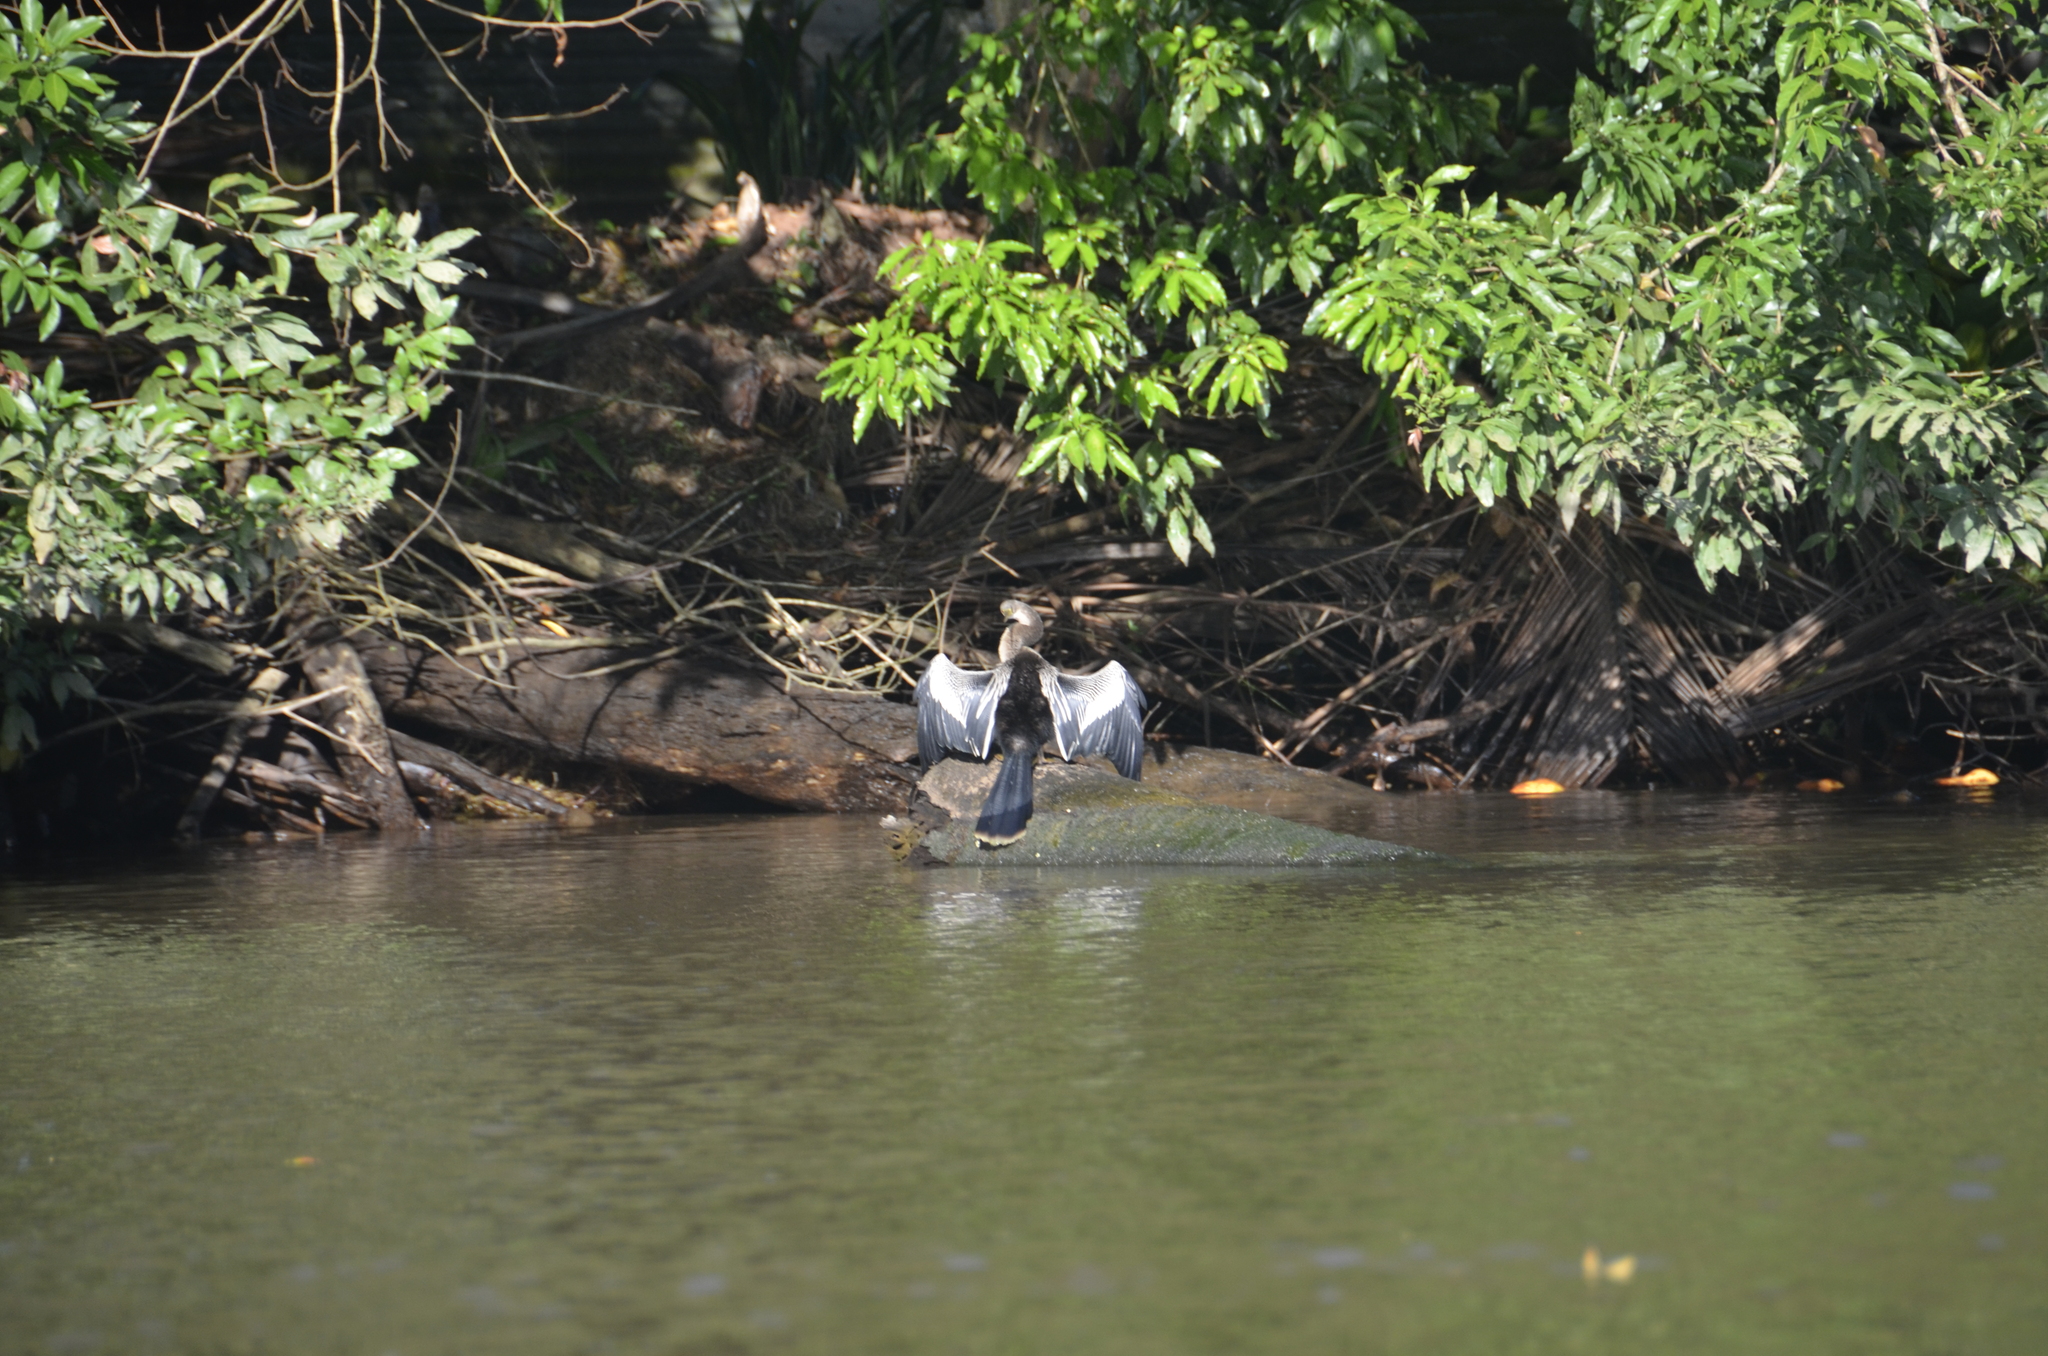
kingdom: Animalia
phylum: Chordata
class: Aves
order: Suliformes
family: Anhingidae
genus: Anhinga
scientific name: Anhinga anhinga
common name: Anhinga
